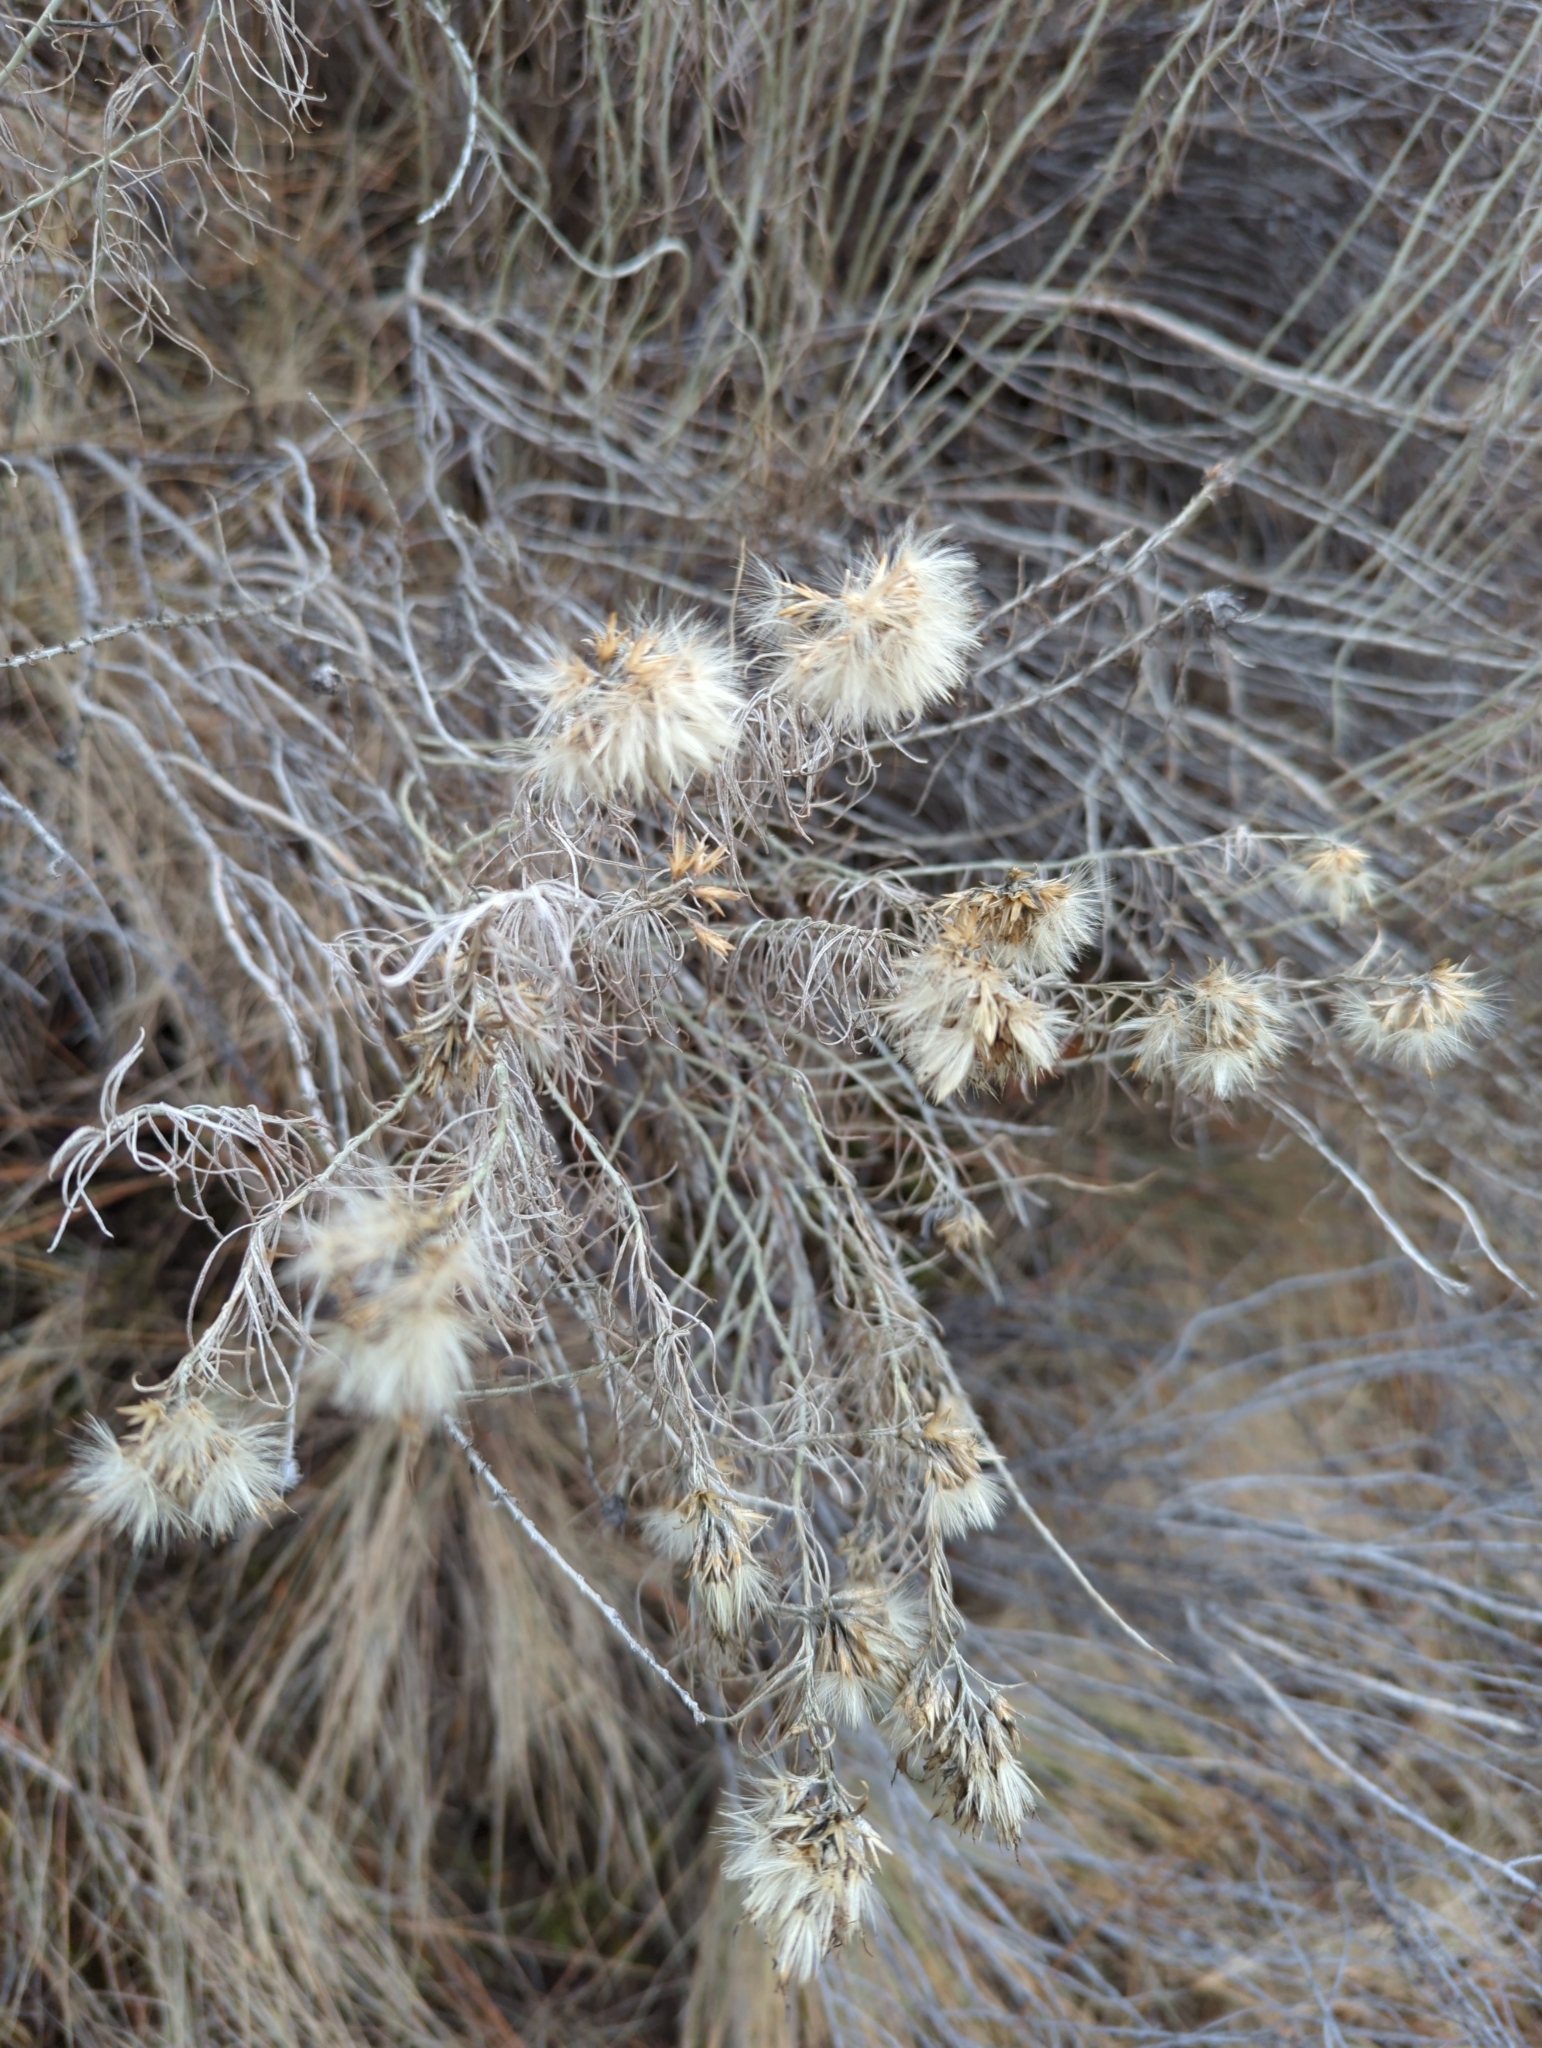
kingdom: Plantae
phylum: Tracheophyta
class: Magnoliopsida
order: Asterales
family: Asteraceae
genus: Ericameria
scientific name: Ericameria nauseosa
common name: Rubber rabbitbrush
